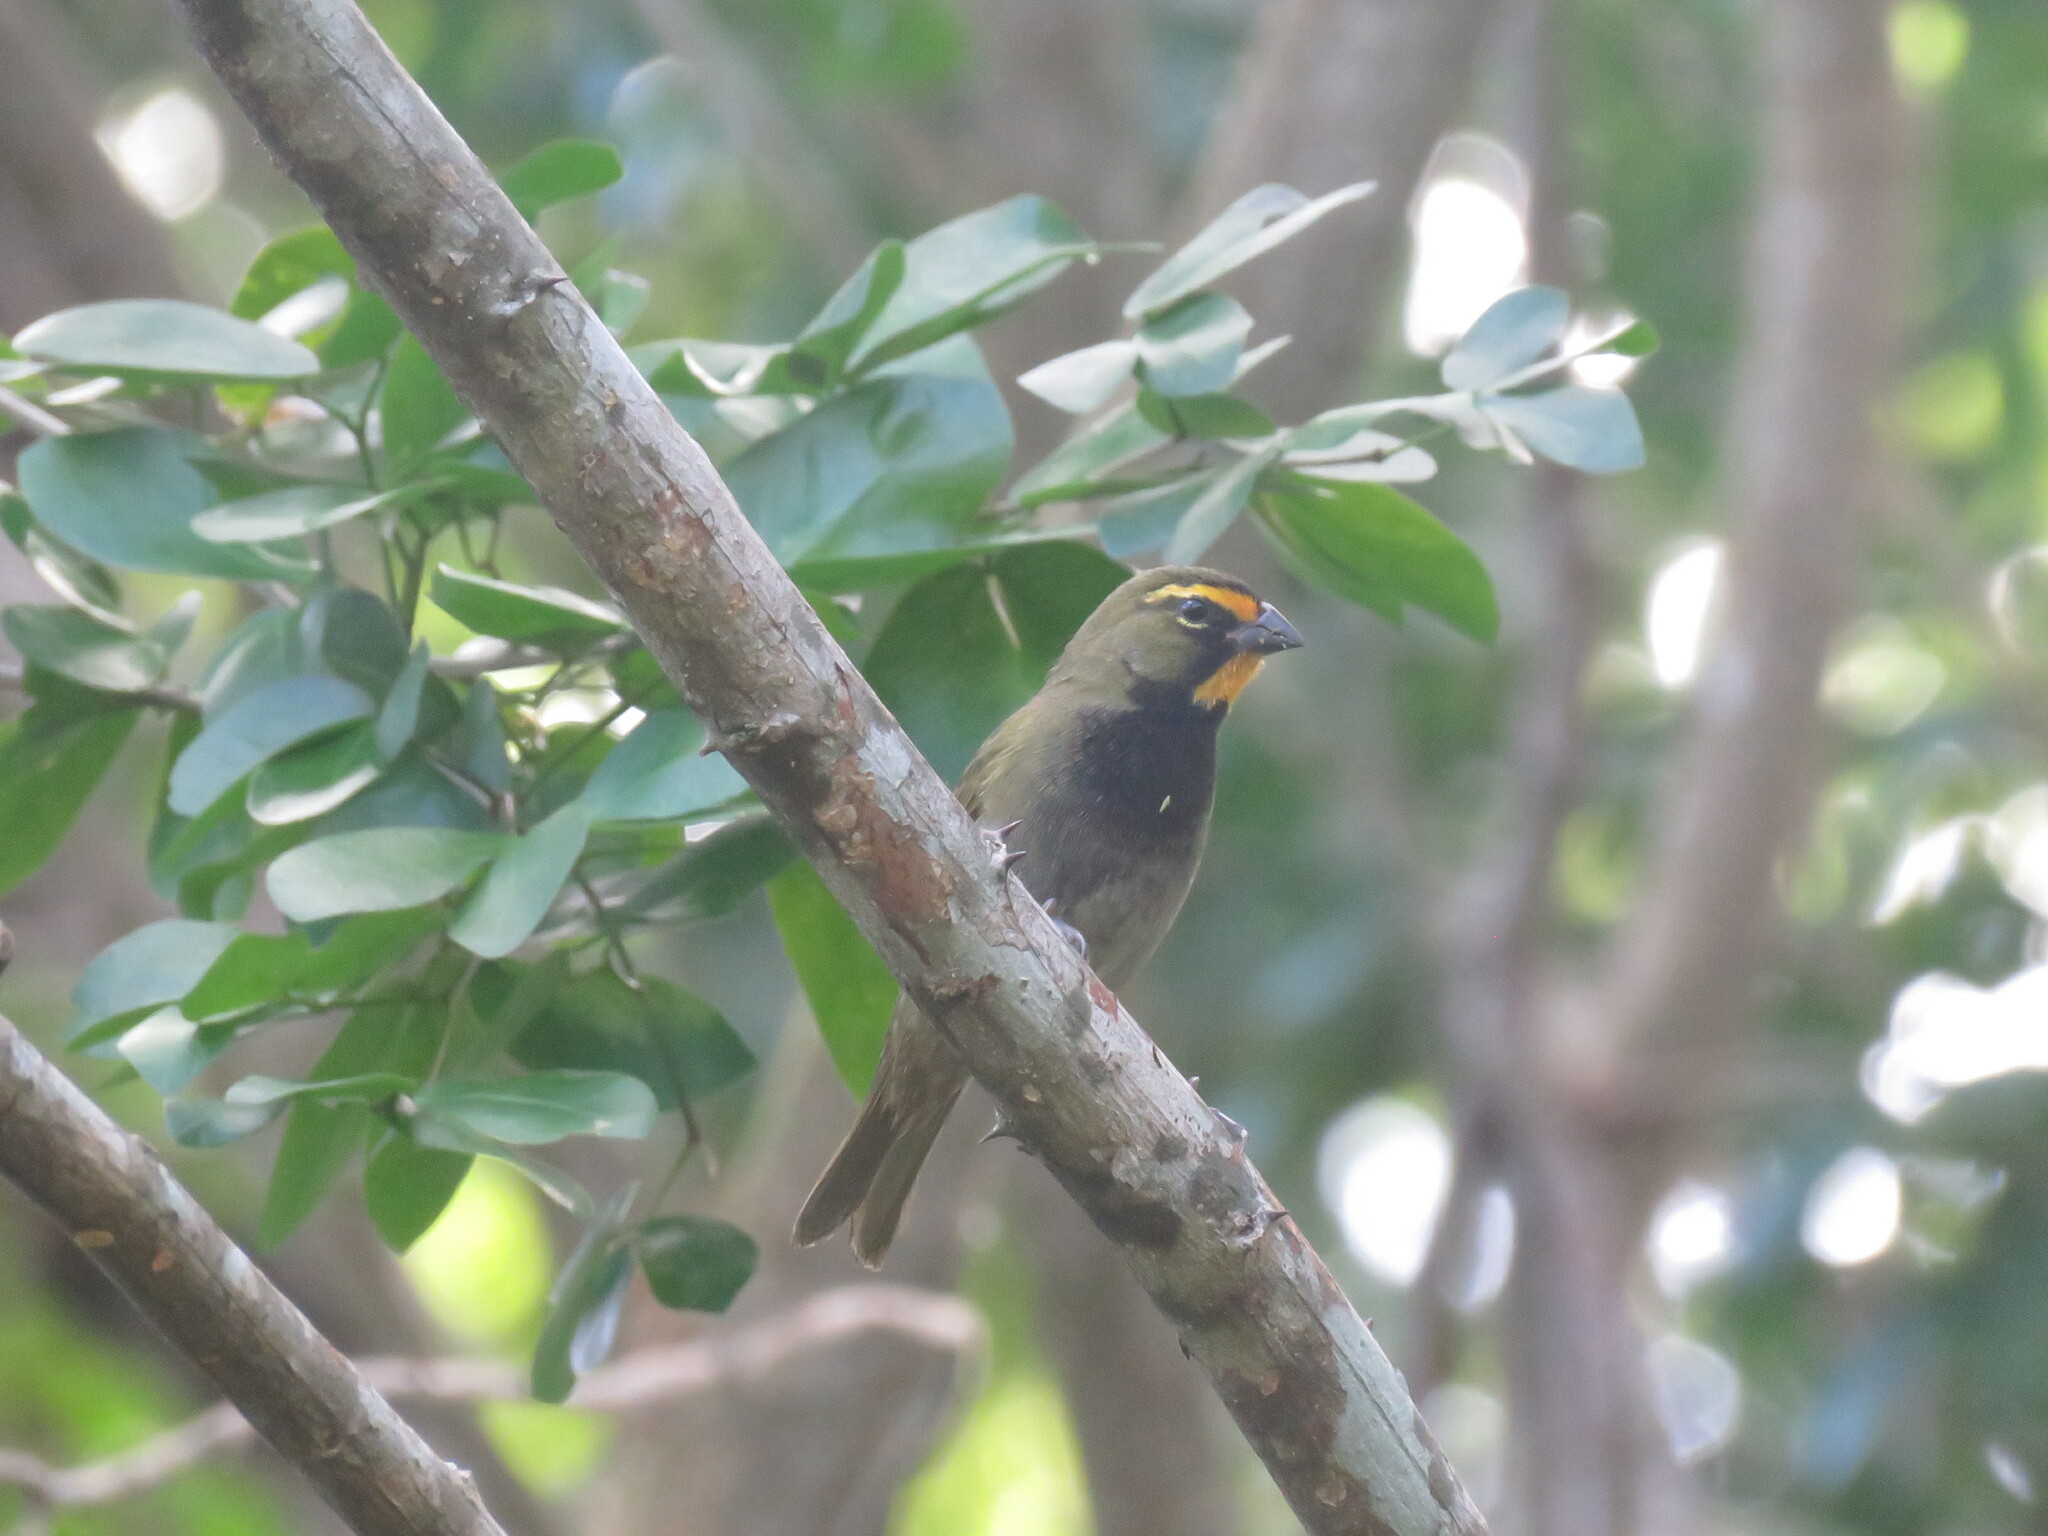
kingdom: Animalia
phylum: Chordata
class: Aves
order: Passeriformes
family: Thraupidae
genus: Tiaris
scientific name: Tiaris olivaceus
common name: Yellow-faced grassquit
